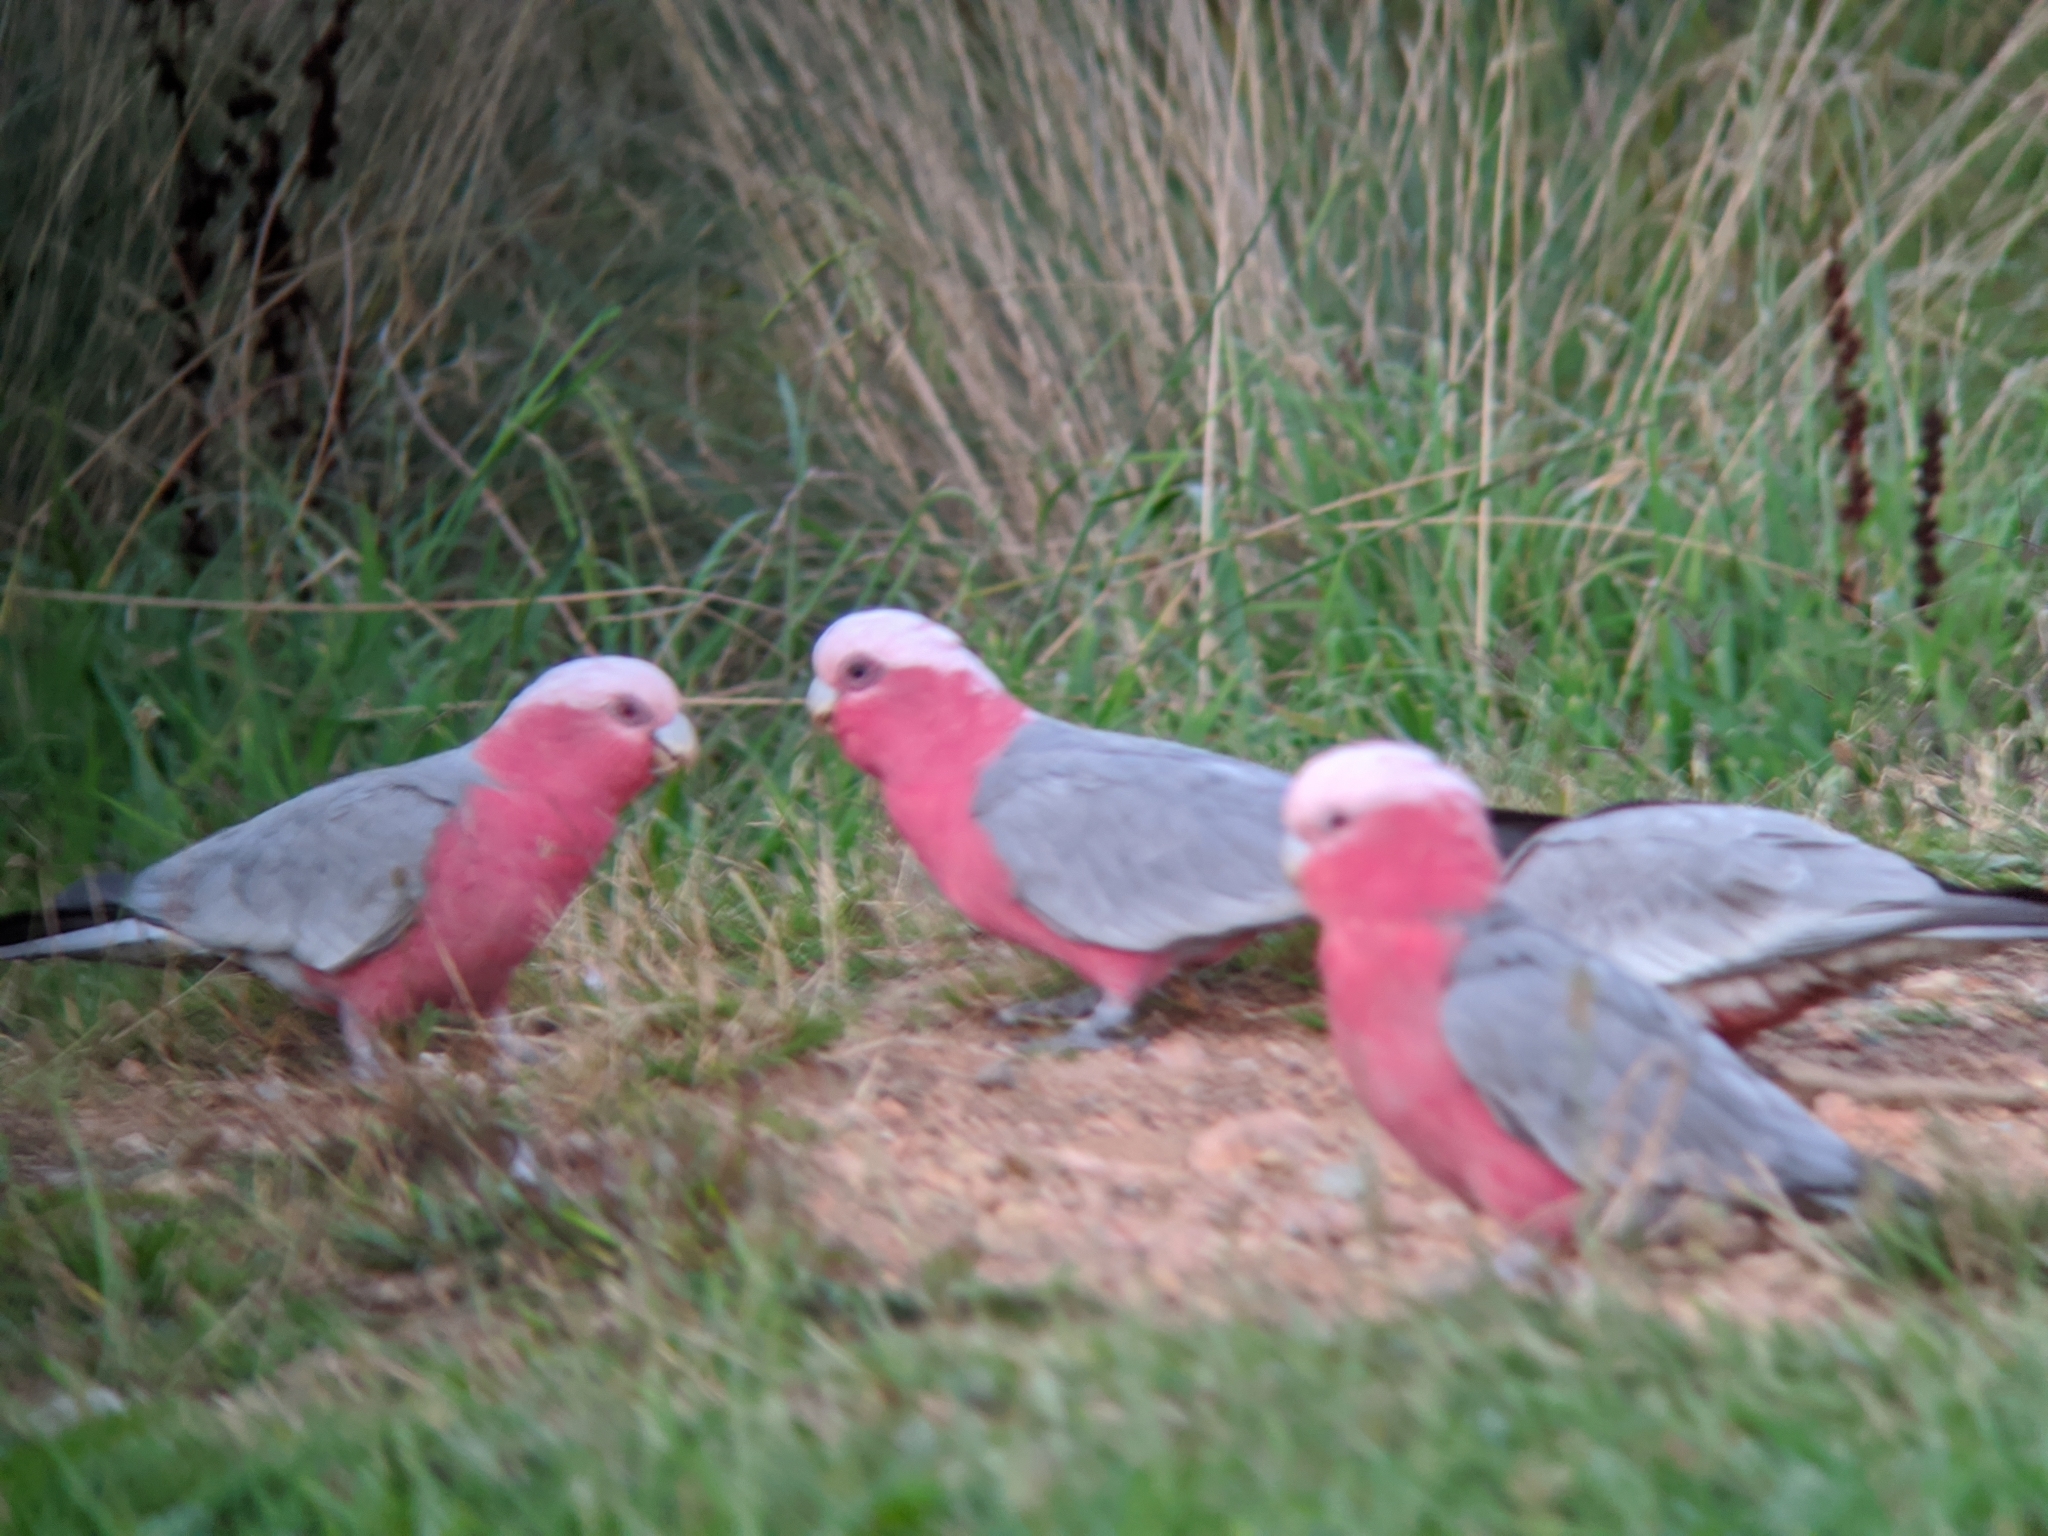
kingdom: Animalia
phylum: Chordata
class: Aves
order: Psittaciformes
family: Psittacidae
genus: Eolophus
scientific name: Eolophus roseicapilla
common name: Galah
